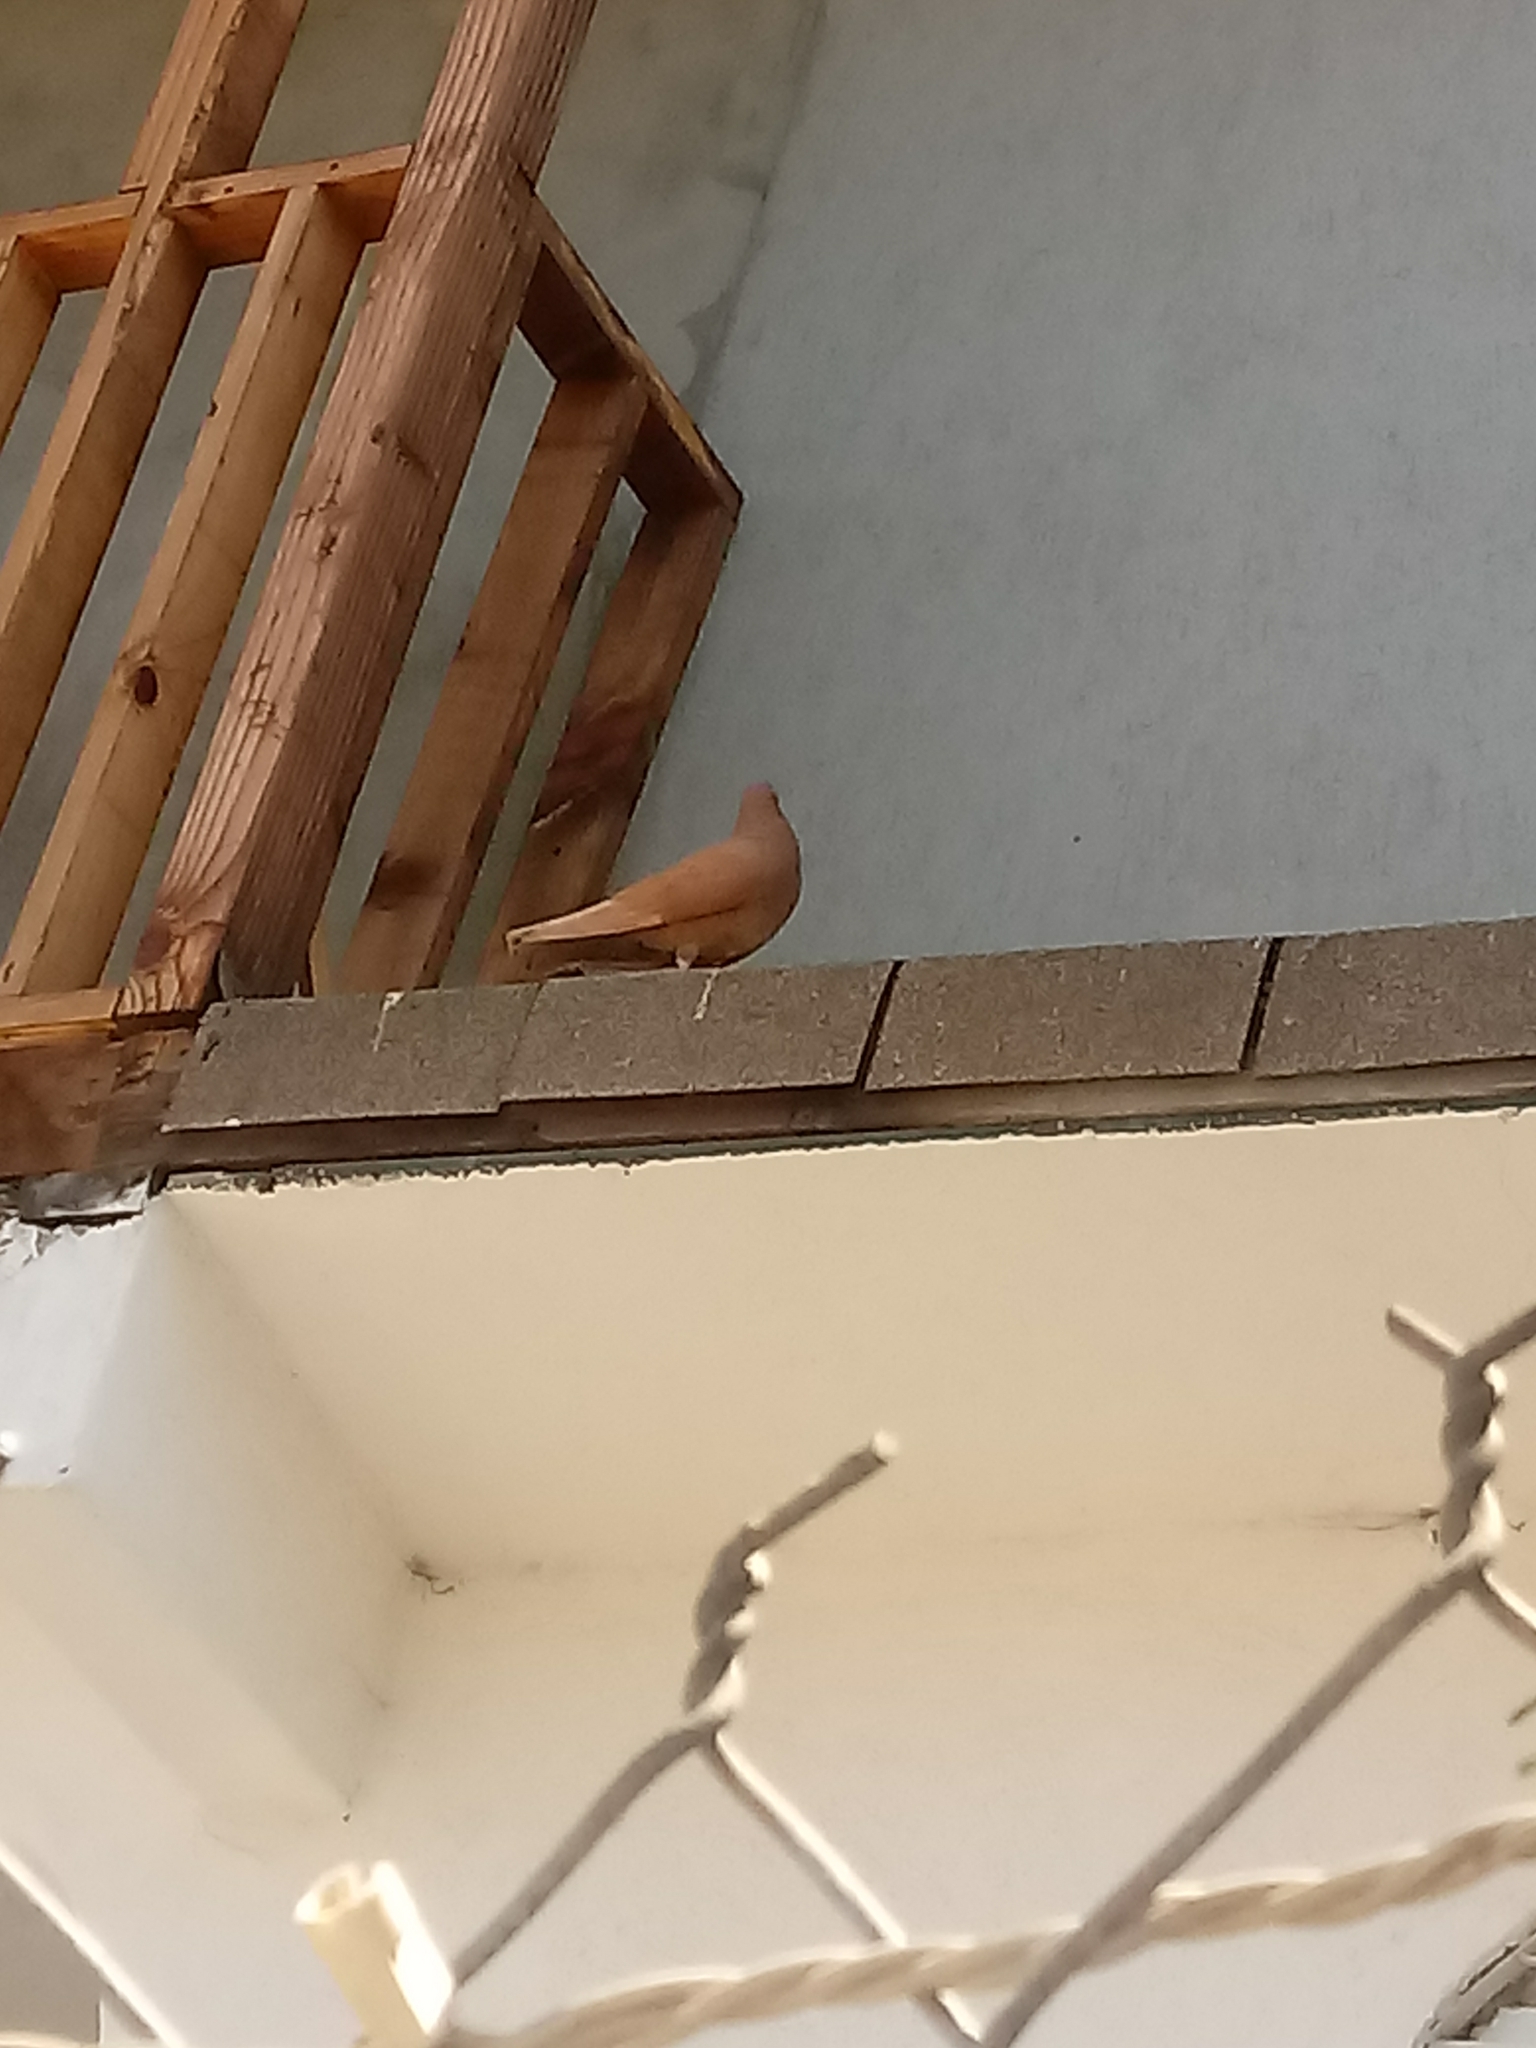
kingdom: Animalia
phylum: Chordata
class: Aves
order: Columbiformes
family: Columbidae
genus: Columba
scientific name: Columba livia
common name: Rock pigeon
